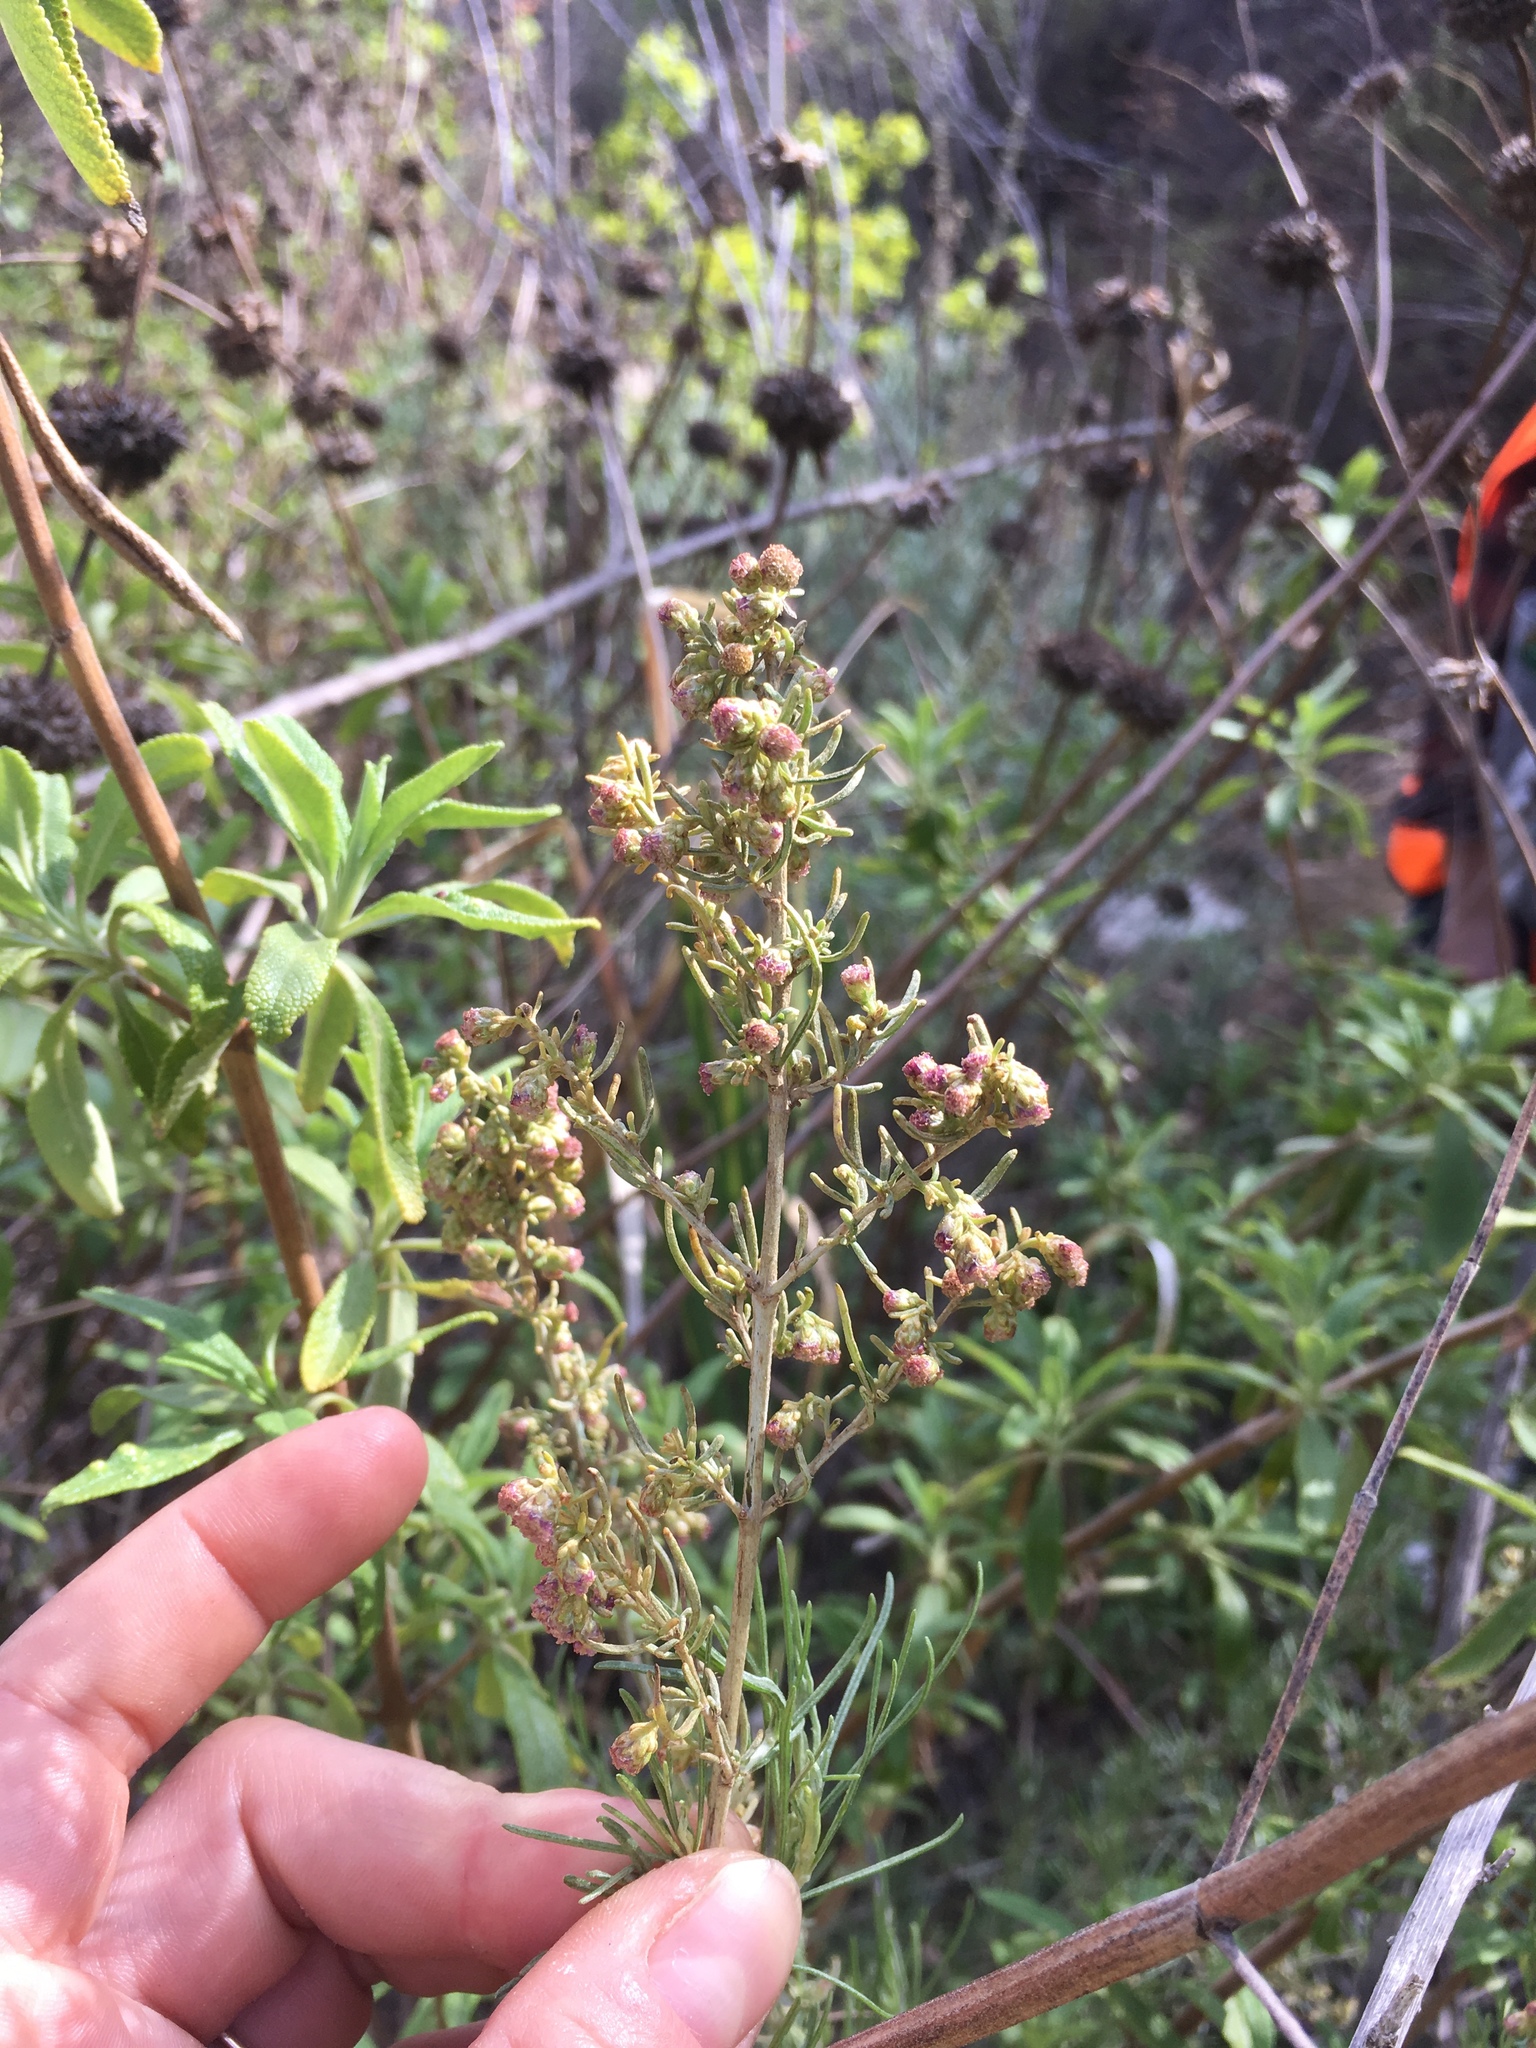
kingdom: Plantae
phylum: Tracheophyta
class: Magnoliopsida
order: Asterales
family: Asteraceae
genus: Artemisia
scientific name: Artemisia californica
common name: California sagebrush
